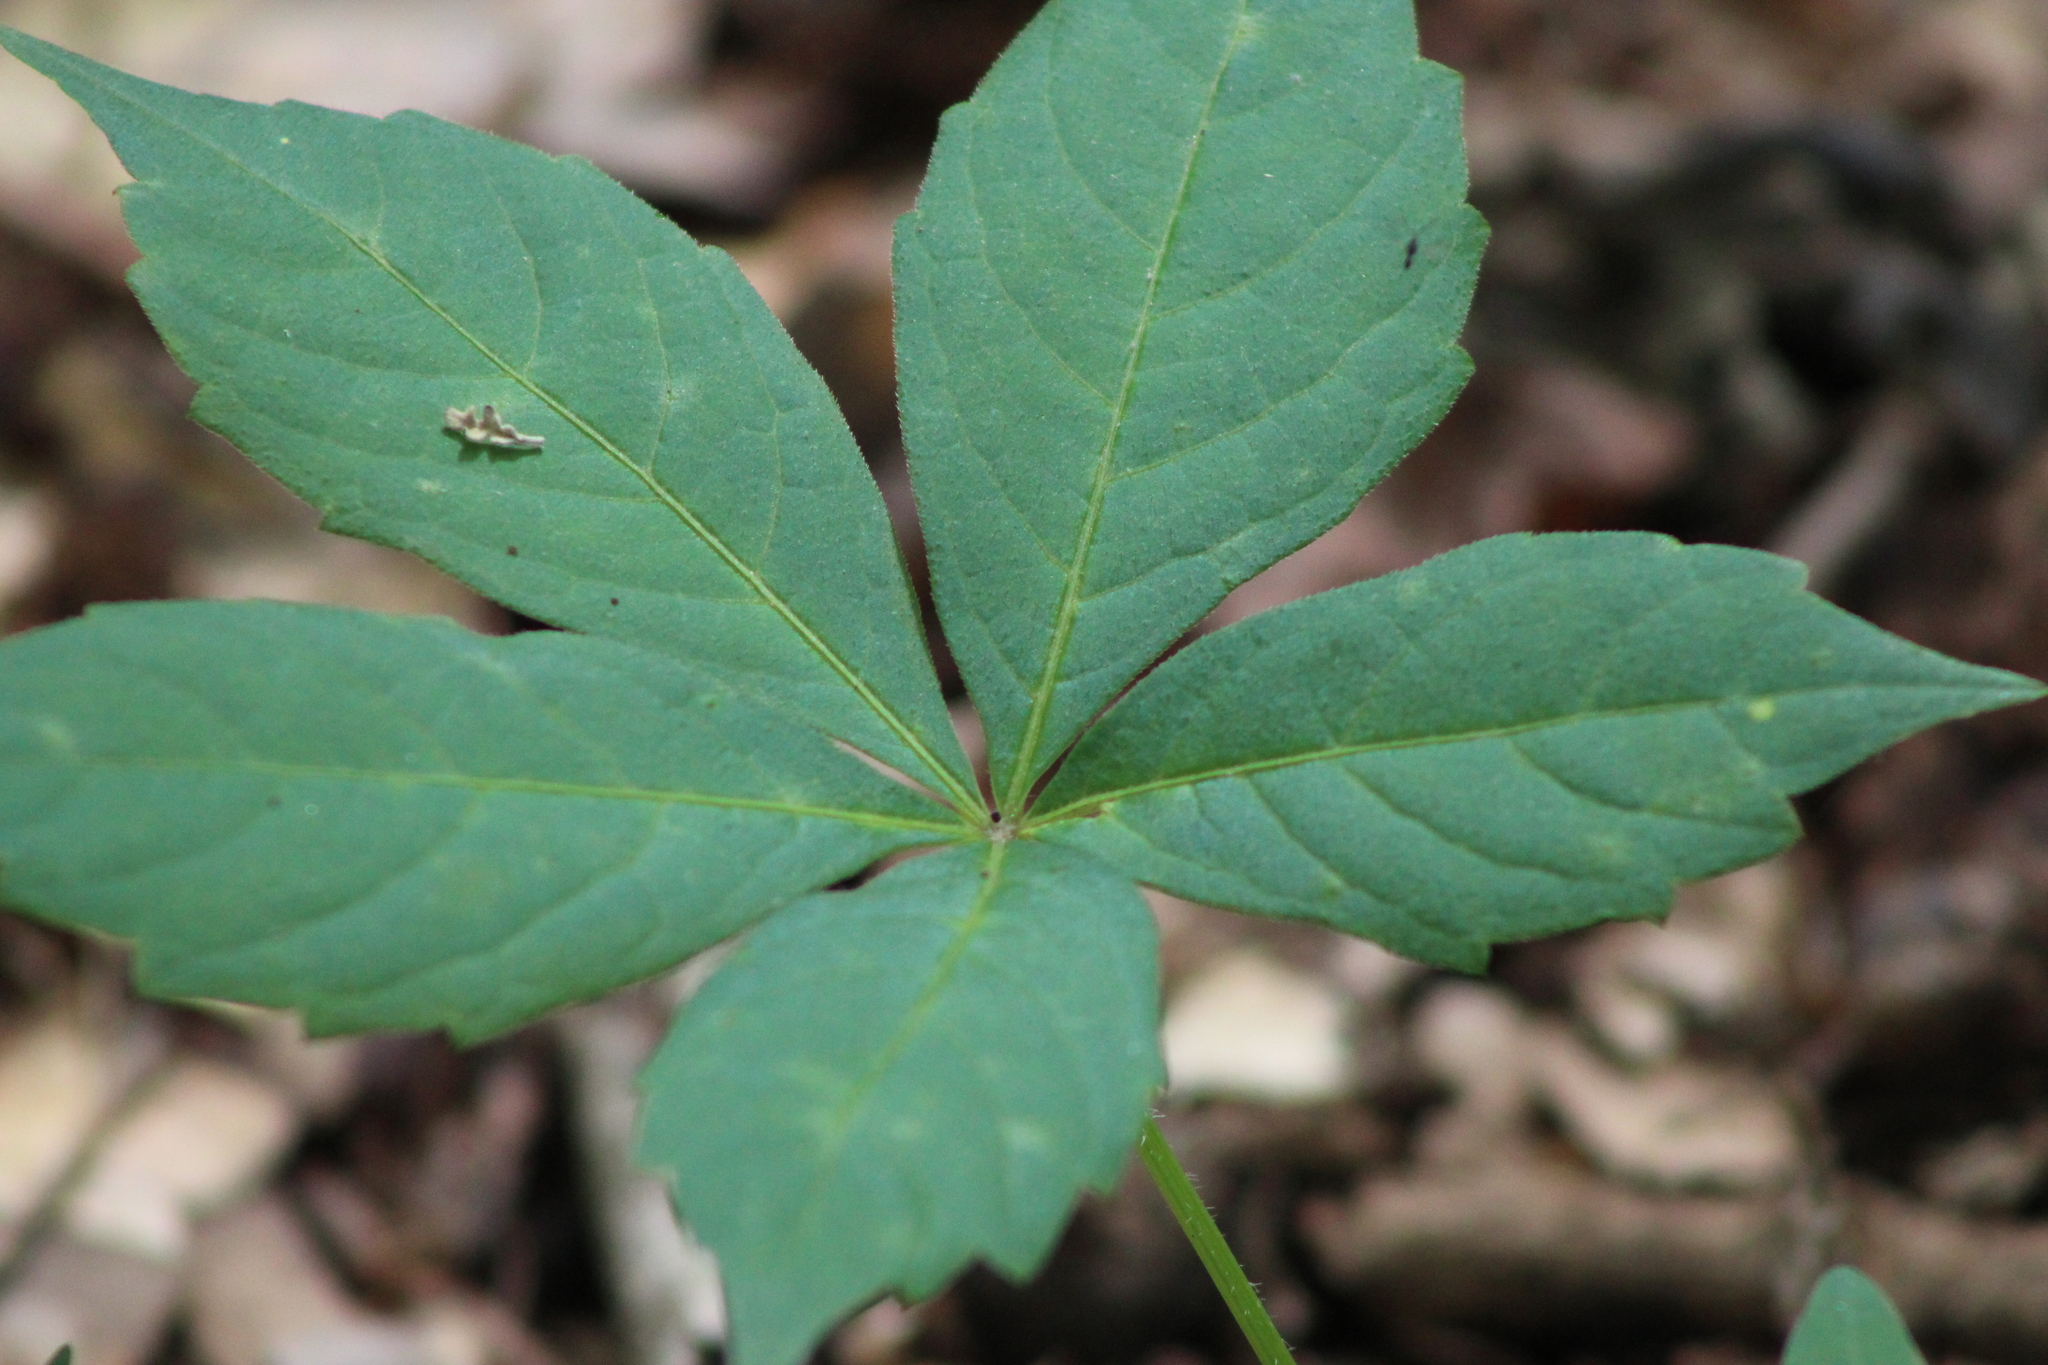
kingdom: Plantae
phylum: Tracheophyta
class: Magnoliopsida
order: Vitales
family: Vitaceae
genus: Parthenocissus
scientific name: Parthenocissus quinquefolia
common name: Virginia-creeper
